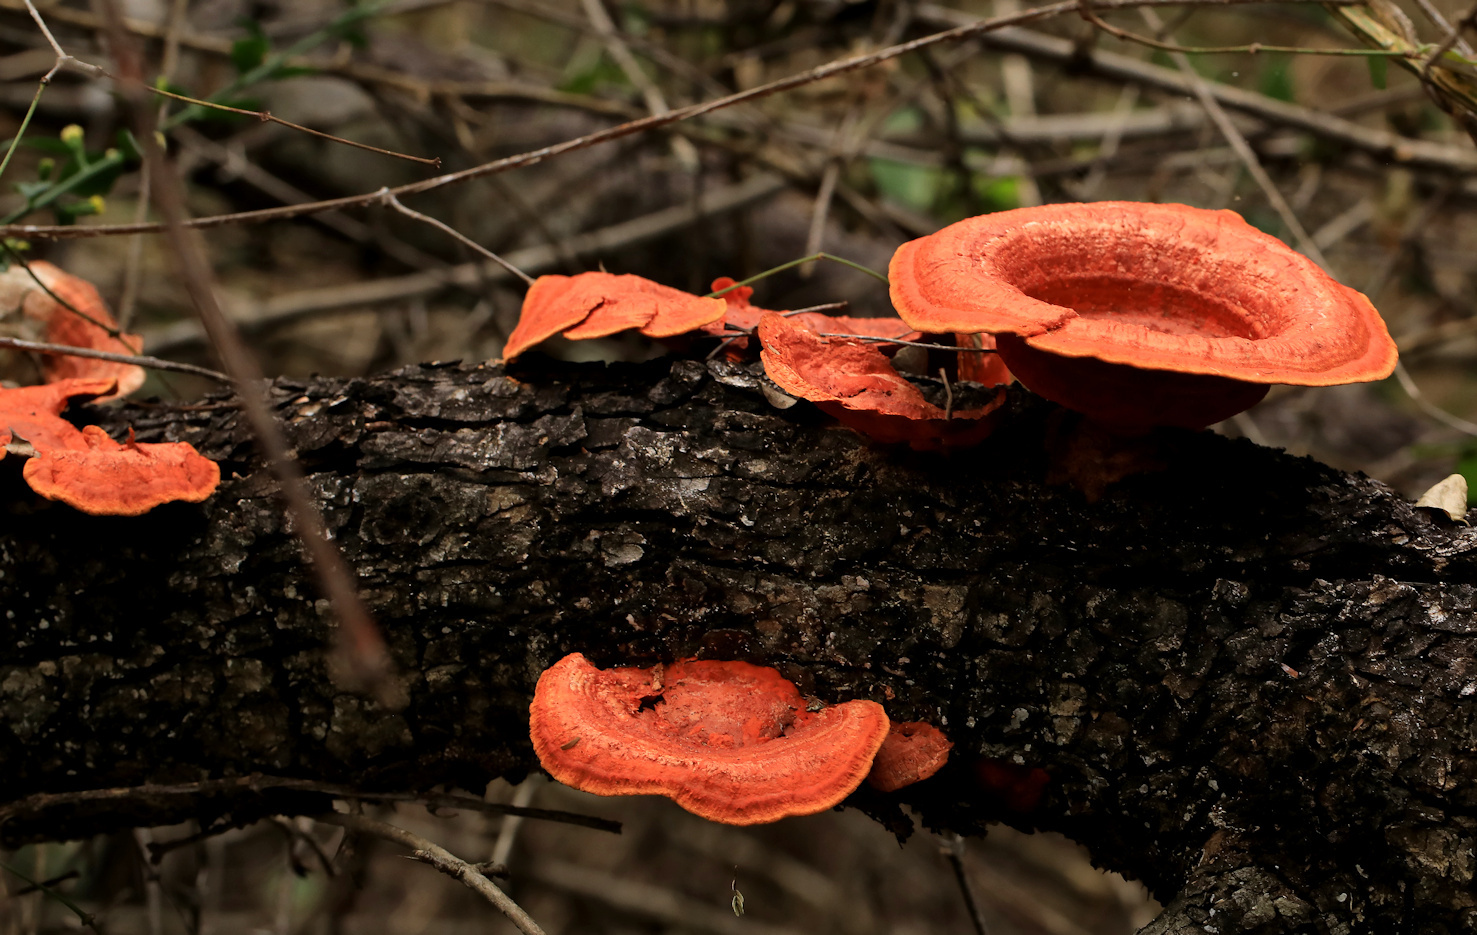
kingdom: Fungi
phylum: Basidiomycota
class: Agaricomycetes
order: Polyporales
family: Polyporaceae
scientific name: Polyporaceae
